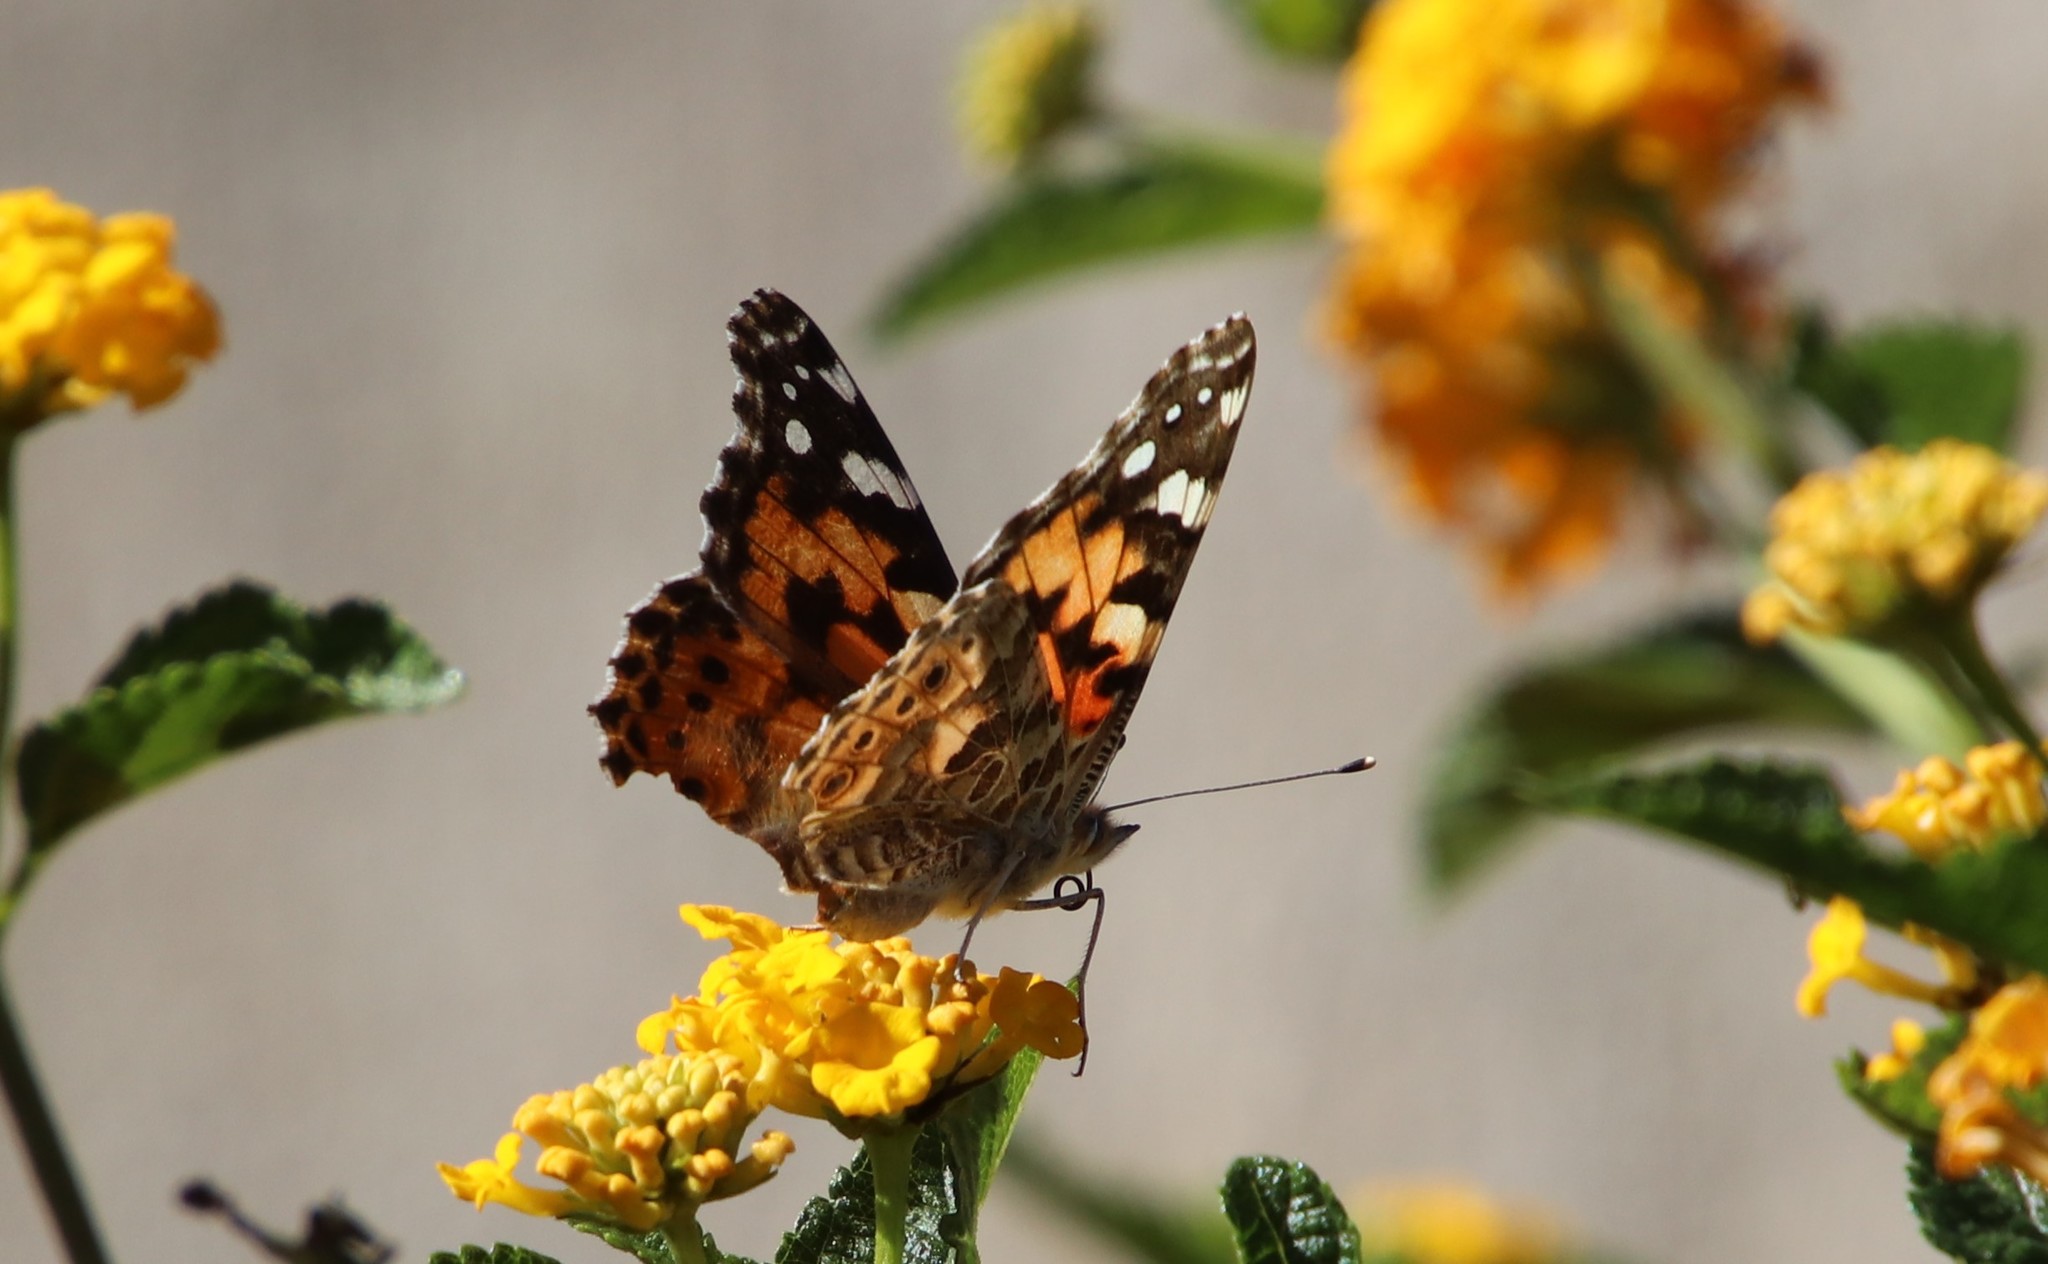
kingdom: Animalia
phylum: Arthropoda
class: Insecta
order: Lepidoptera
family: Nymphalidae
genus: Vanessa
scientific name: Vanessa cardui
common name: Painted lady
